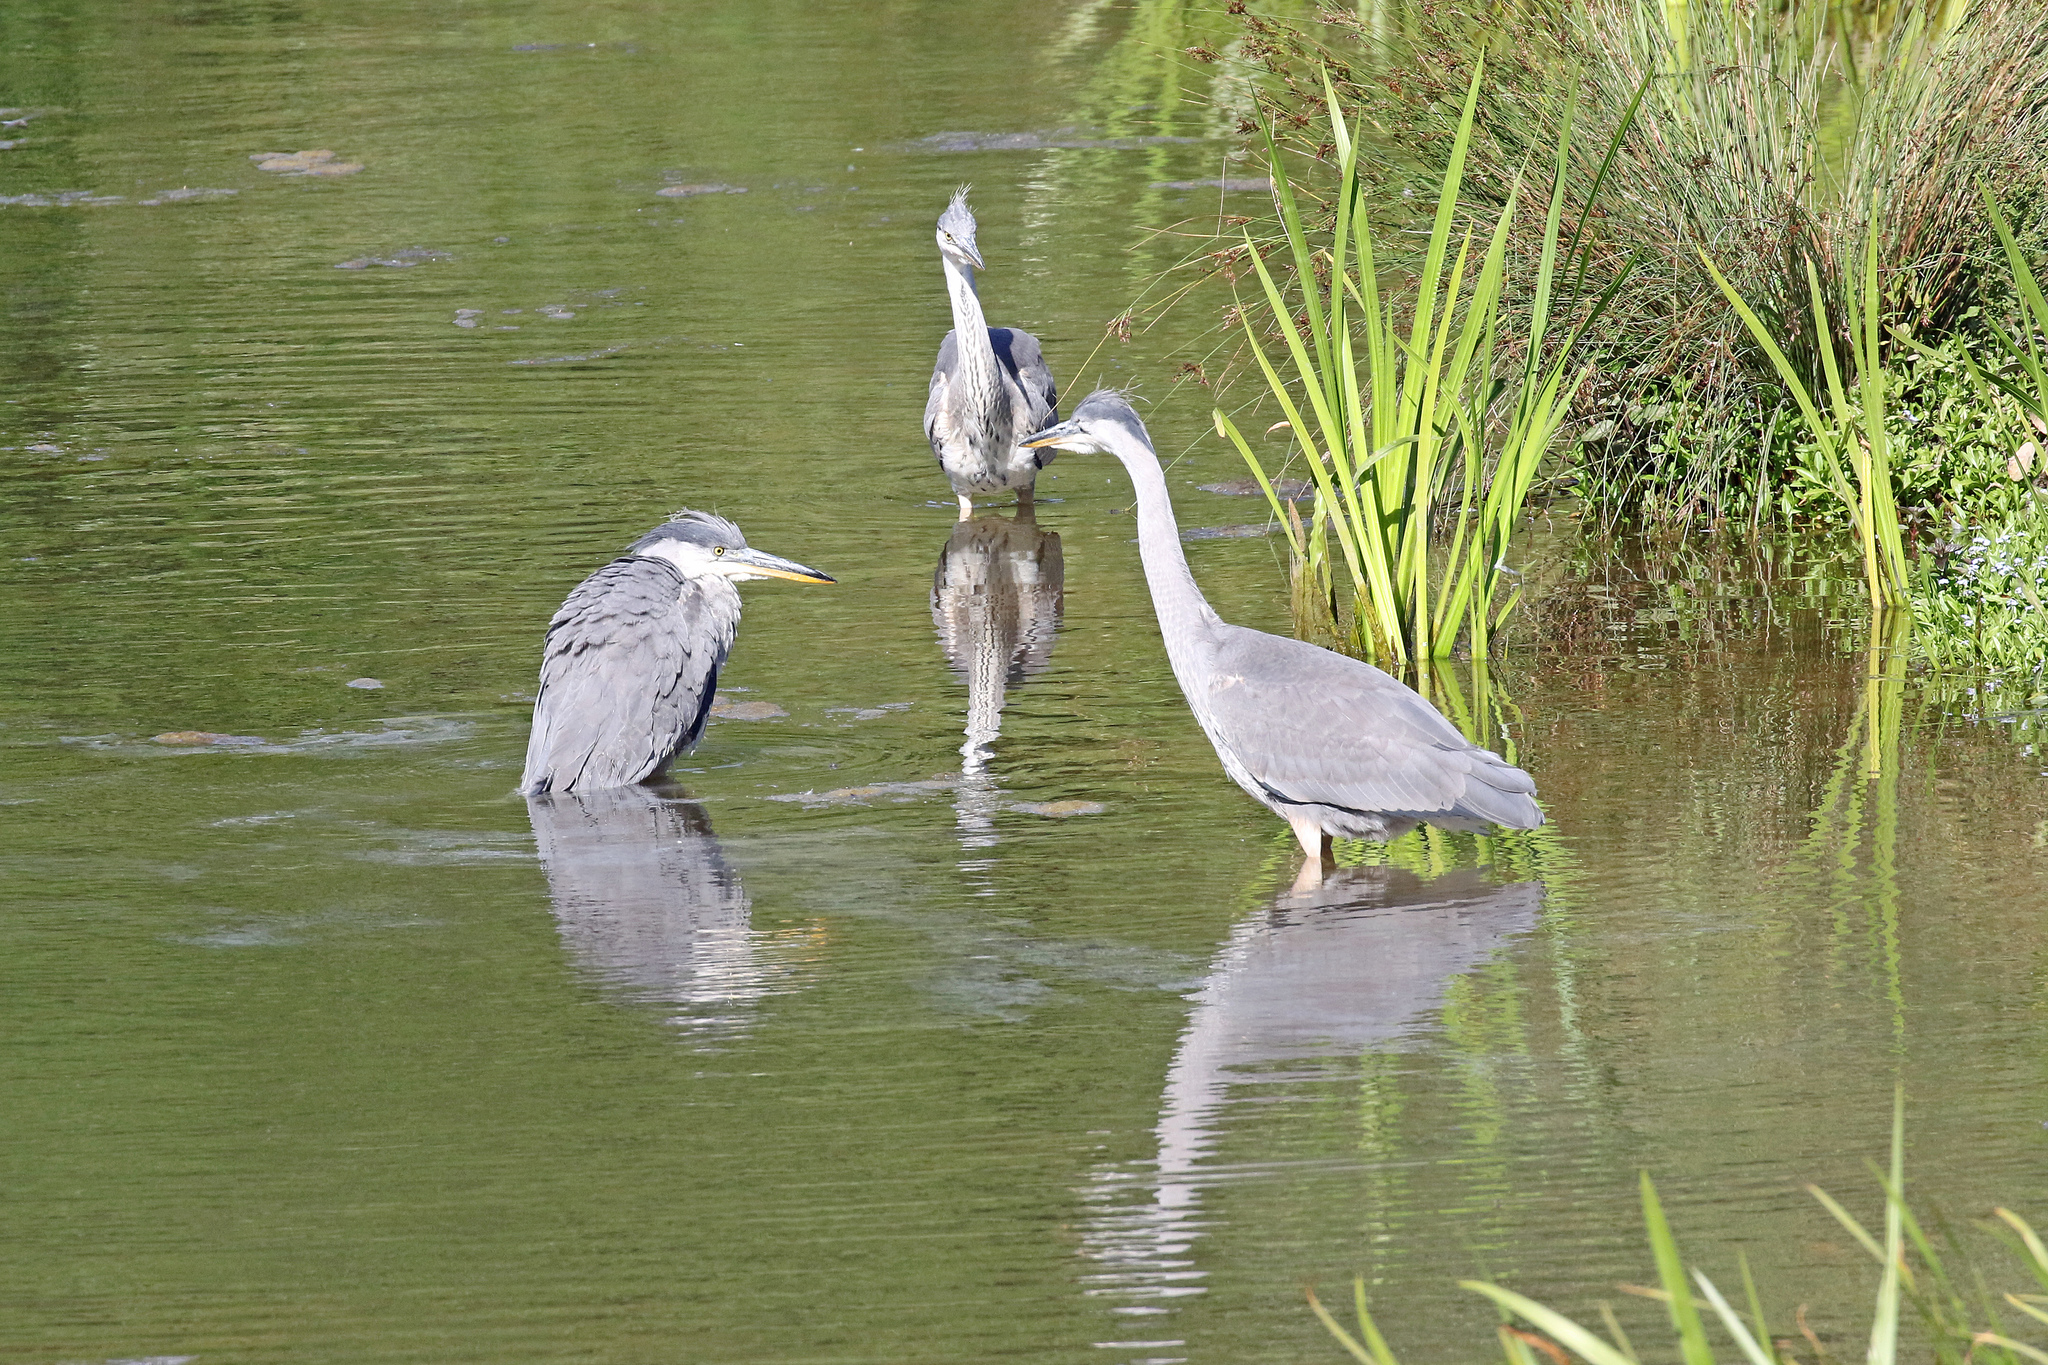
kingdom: Animalia
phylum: Chordata
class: Aves
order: Pelecaniformes
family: Ardeidae
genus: Ardea
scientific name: Ardea cinerea
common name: Grey heron
